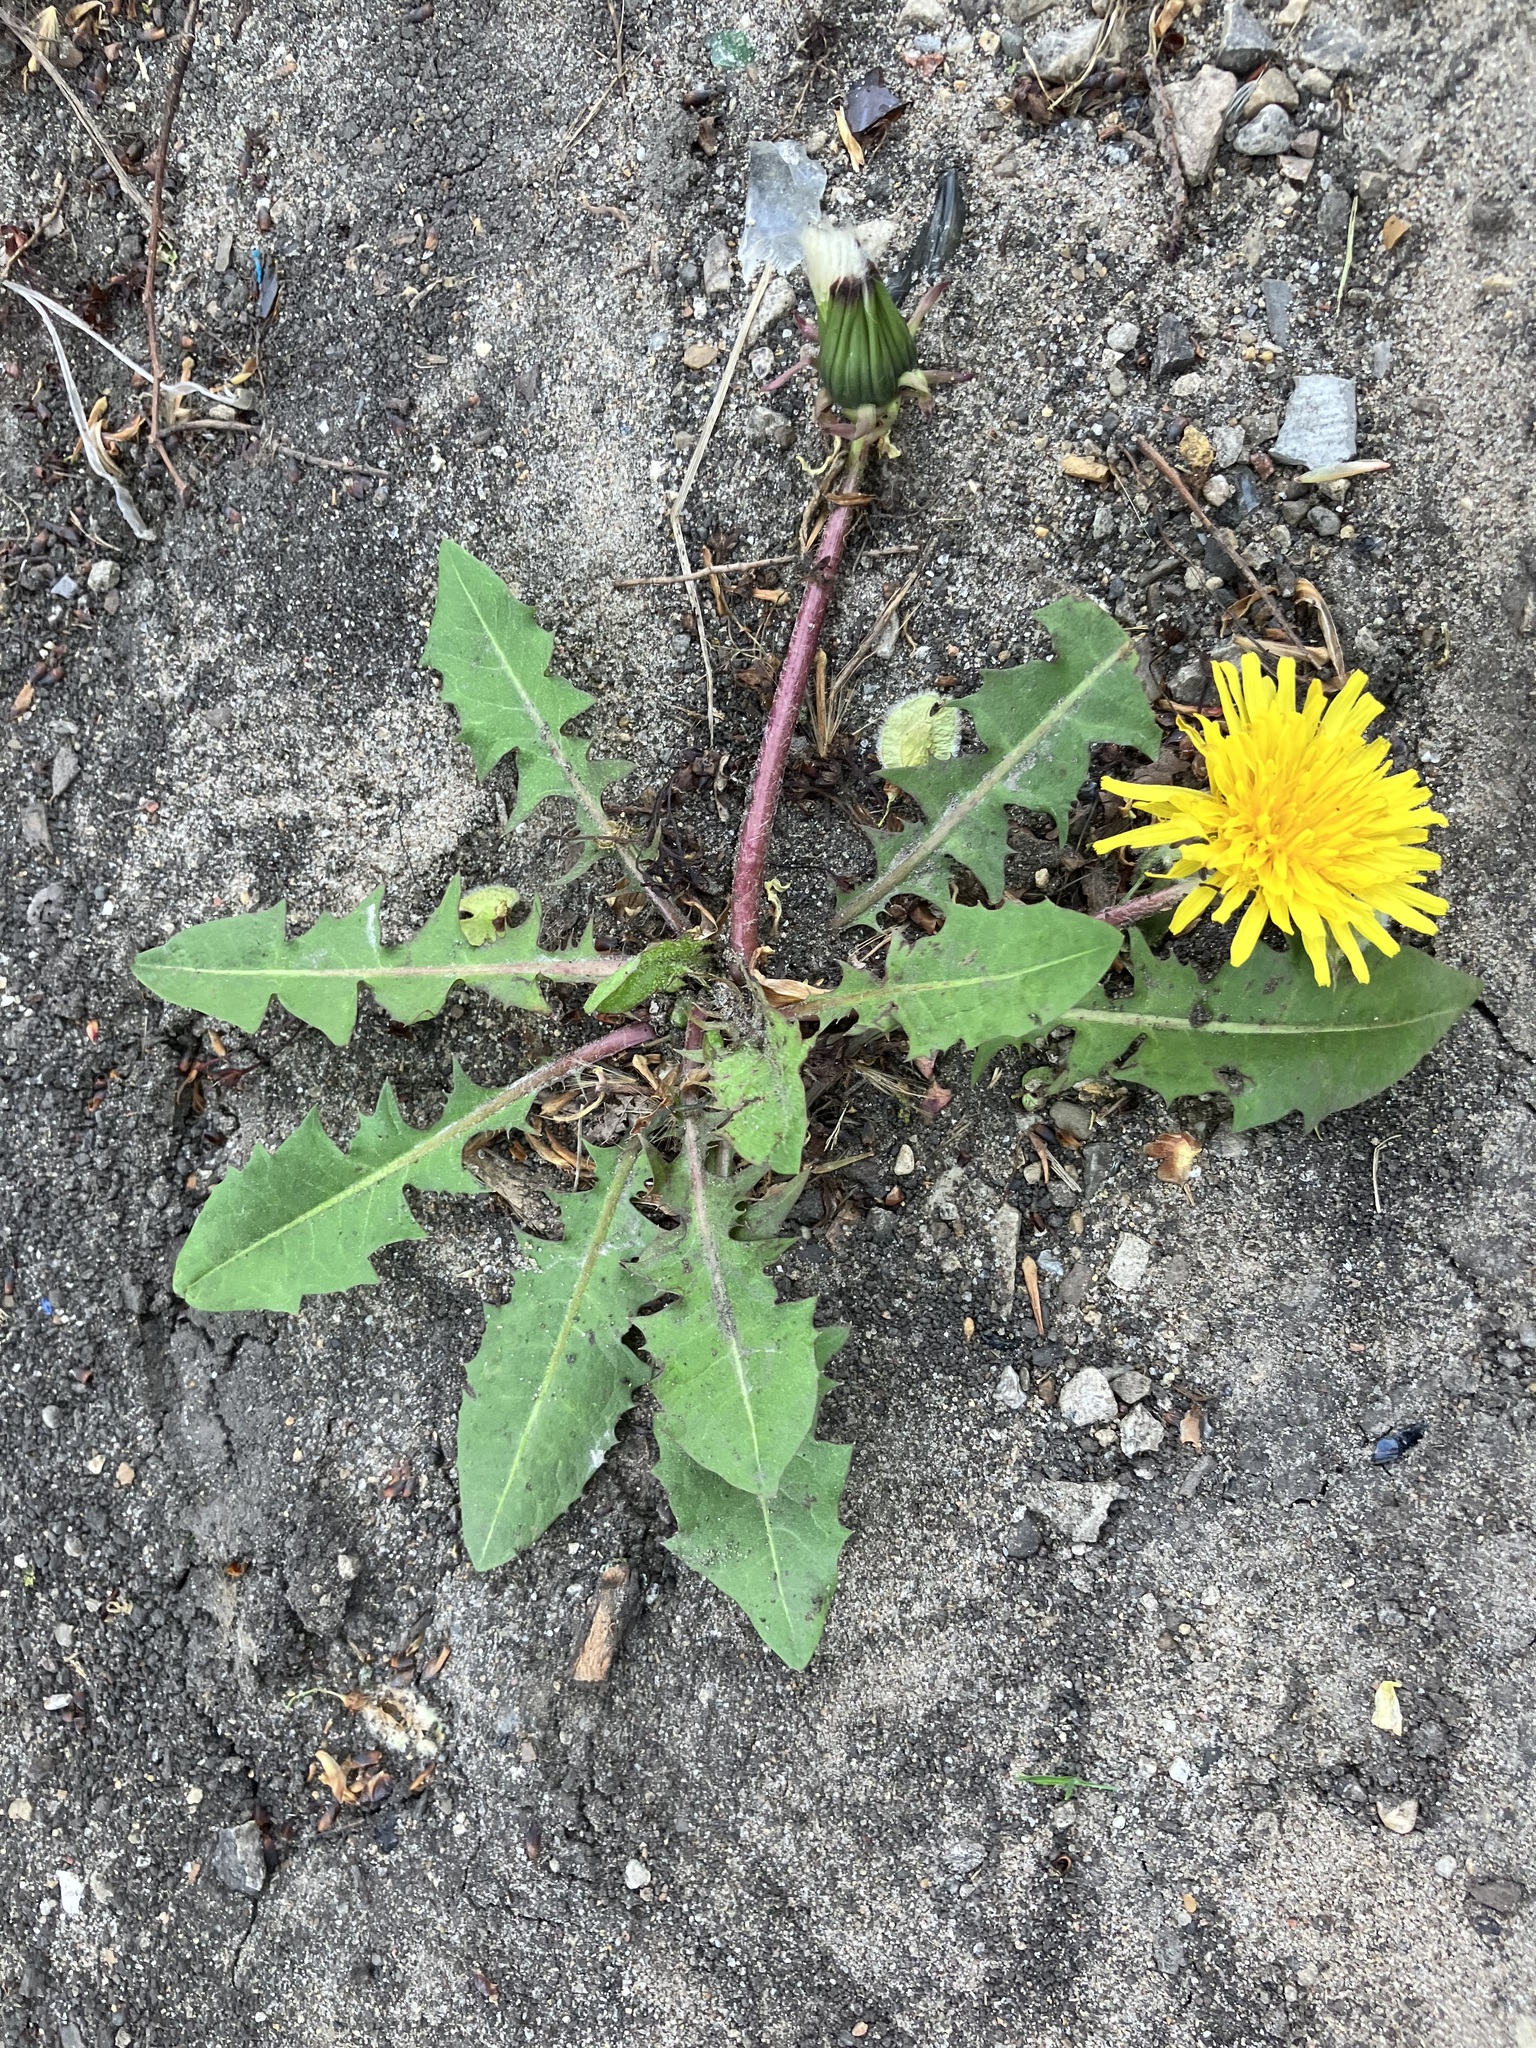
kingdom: Plantae
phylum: Tracheophyta
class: Magnoliopsida
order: Asterales
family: Asteraceae
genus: Taraxacum
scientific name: Taraxacum officinale
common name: Common dandelion
